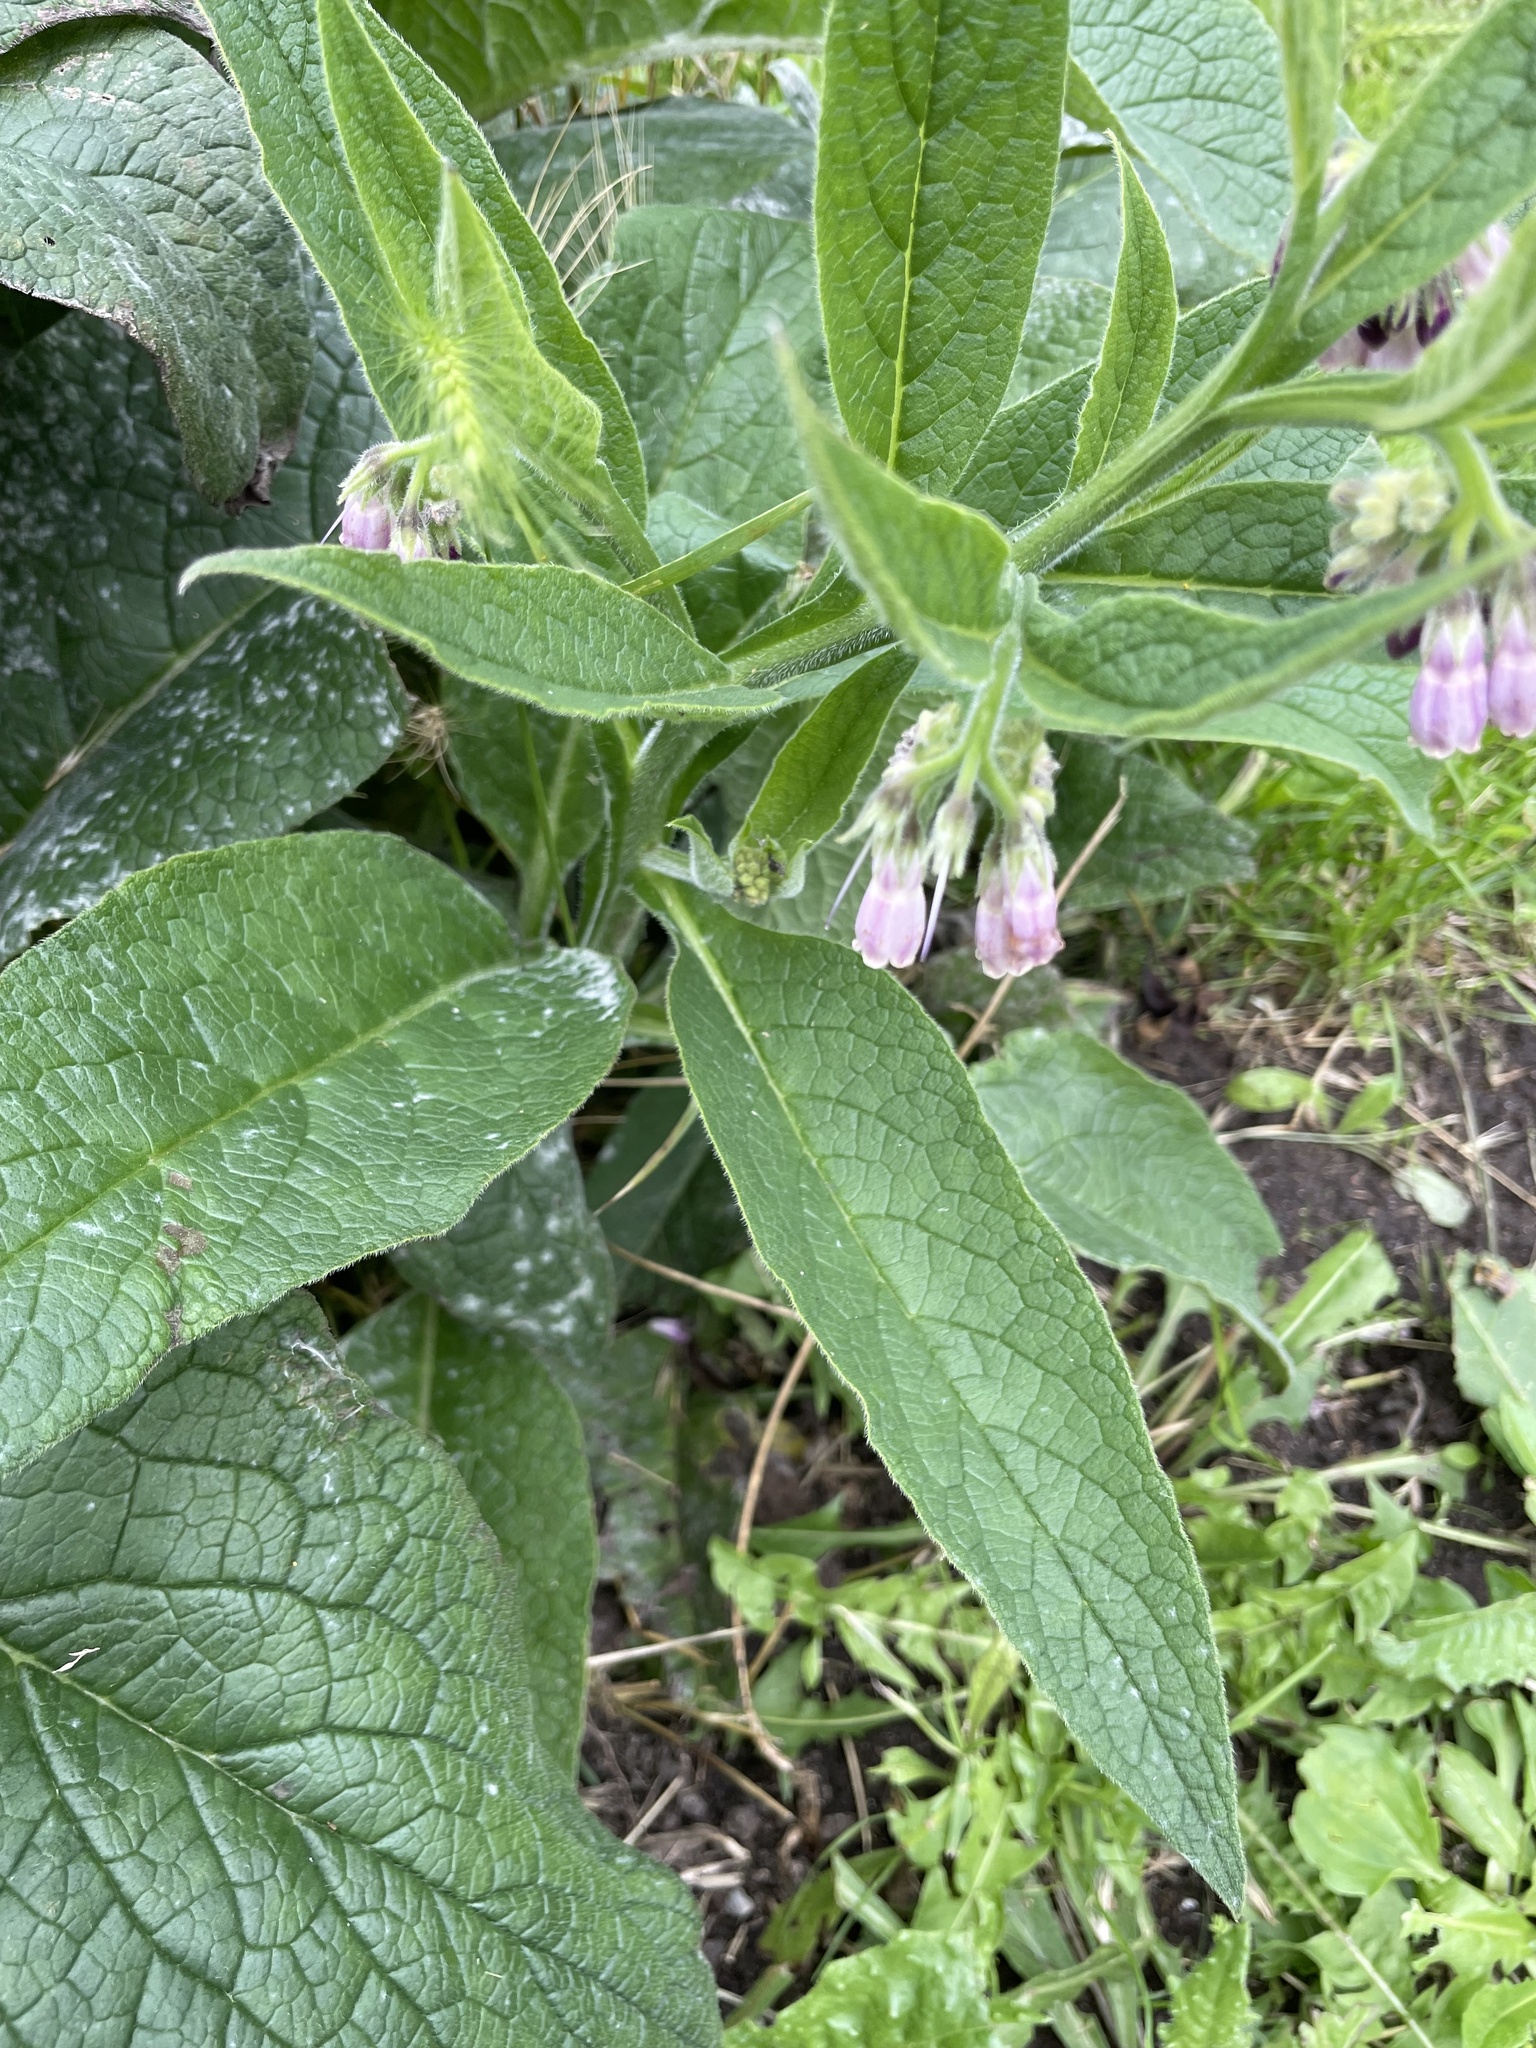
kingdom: Plantae
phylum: Tracheophyta
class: Magnoliopsida
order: Boraginales
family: Boraginaceae
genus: Symphytum
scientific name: Symphytum officinale
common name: Common comfrey
